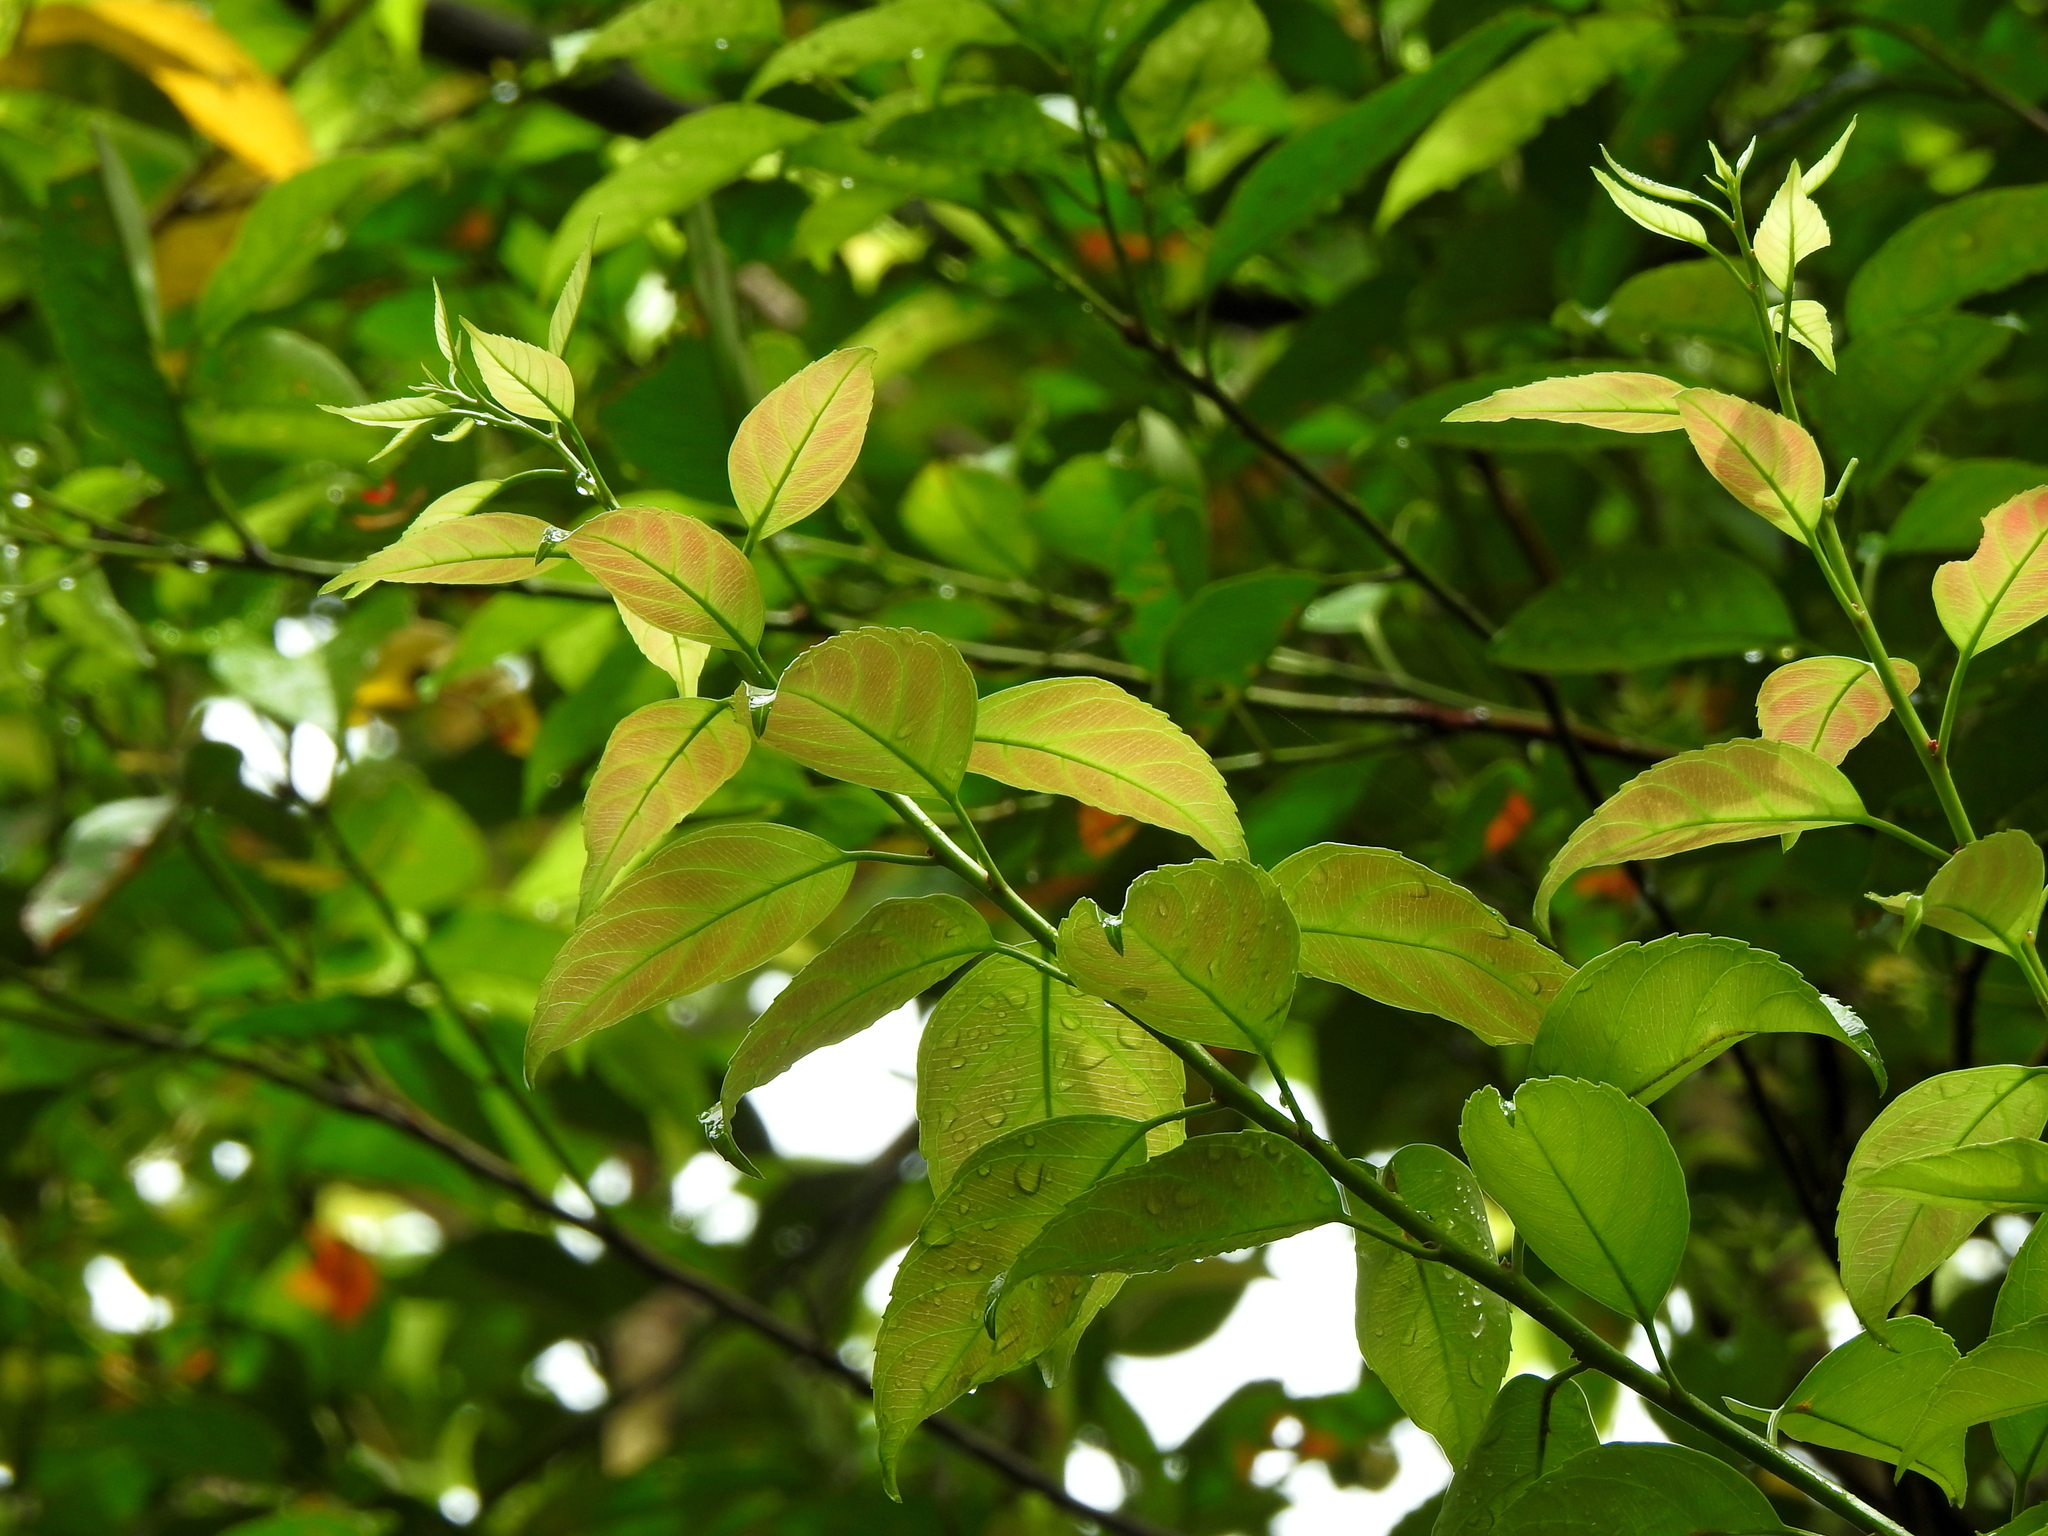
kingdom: Plantae
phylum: Tracheophyta
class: Magnoliopsida
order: Saxifragales
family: Iteaceae
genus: Itea
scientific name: Itea parviflora
